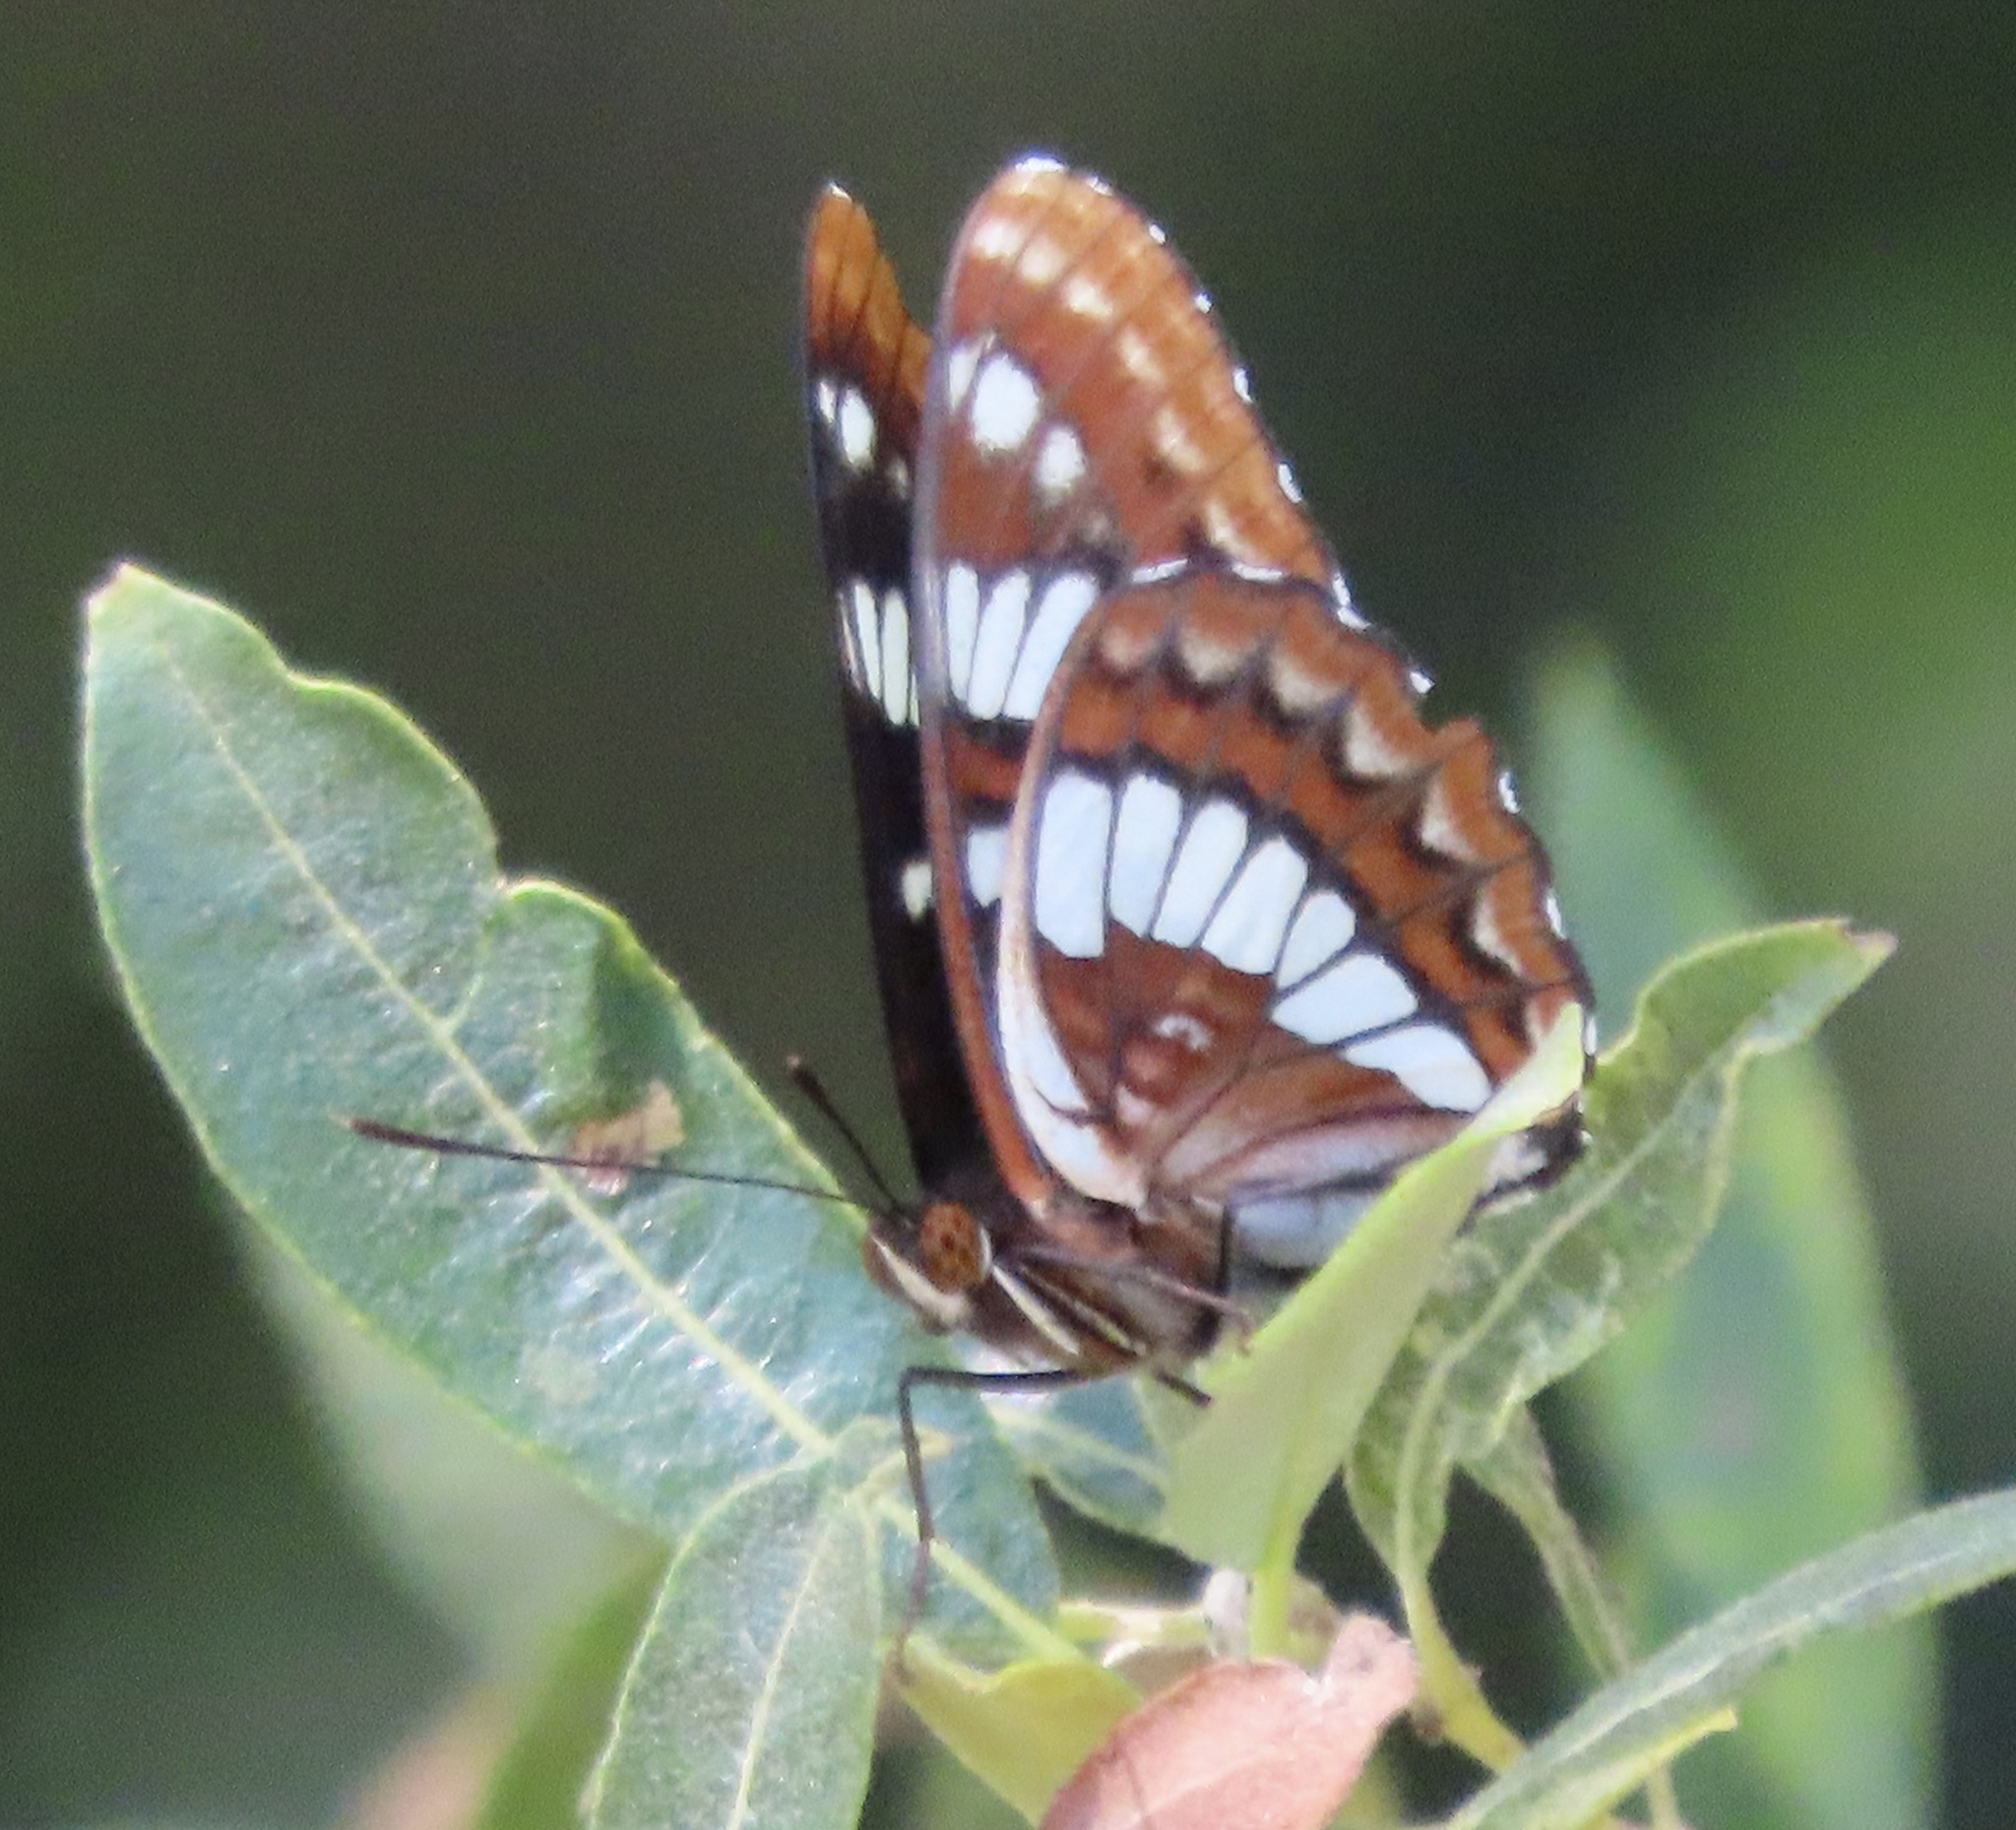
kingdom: Animalia
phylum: Arthropoda
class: Insecta
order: Lepidoptera
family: Nymphalidae
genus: Limenitis
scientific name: Limenitis lorquini
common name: Lorquin's admiral
